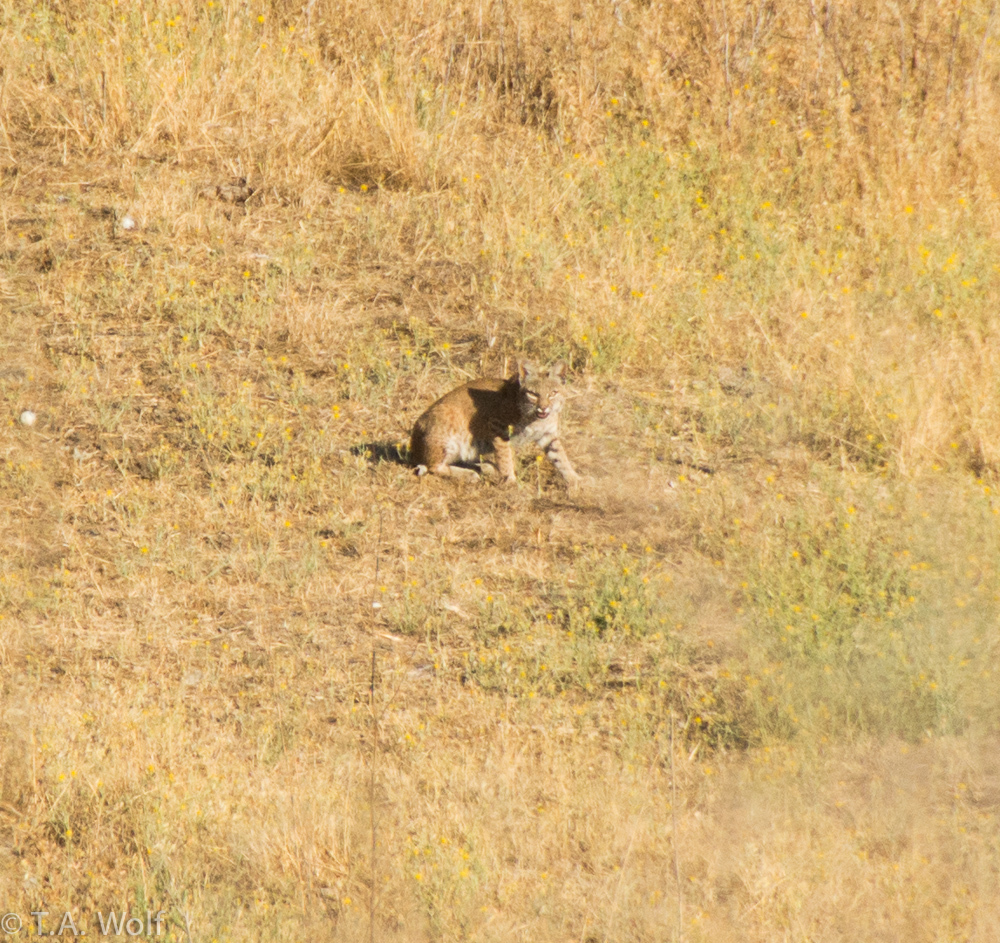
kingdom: Animalia
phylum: Chordata
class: Mammalia
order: Carnivora
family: Felidae
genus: Lynx
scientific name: Lynx rufus
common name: Bobcat
